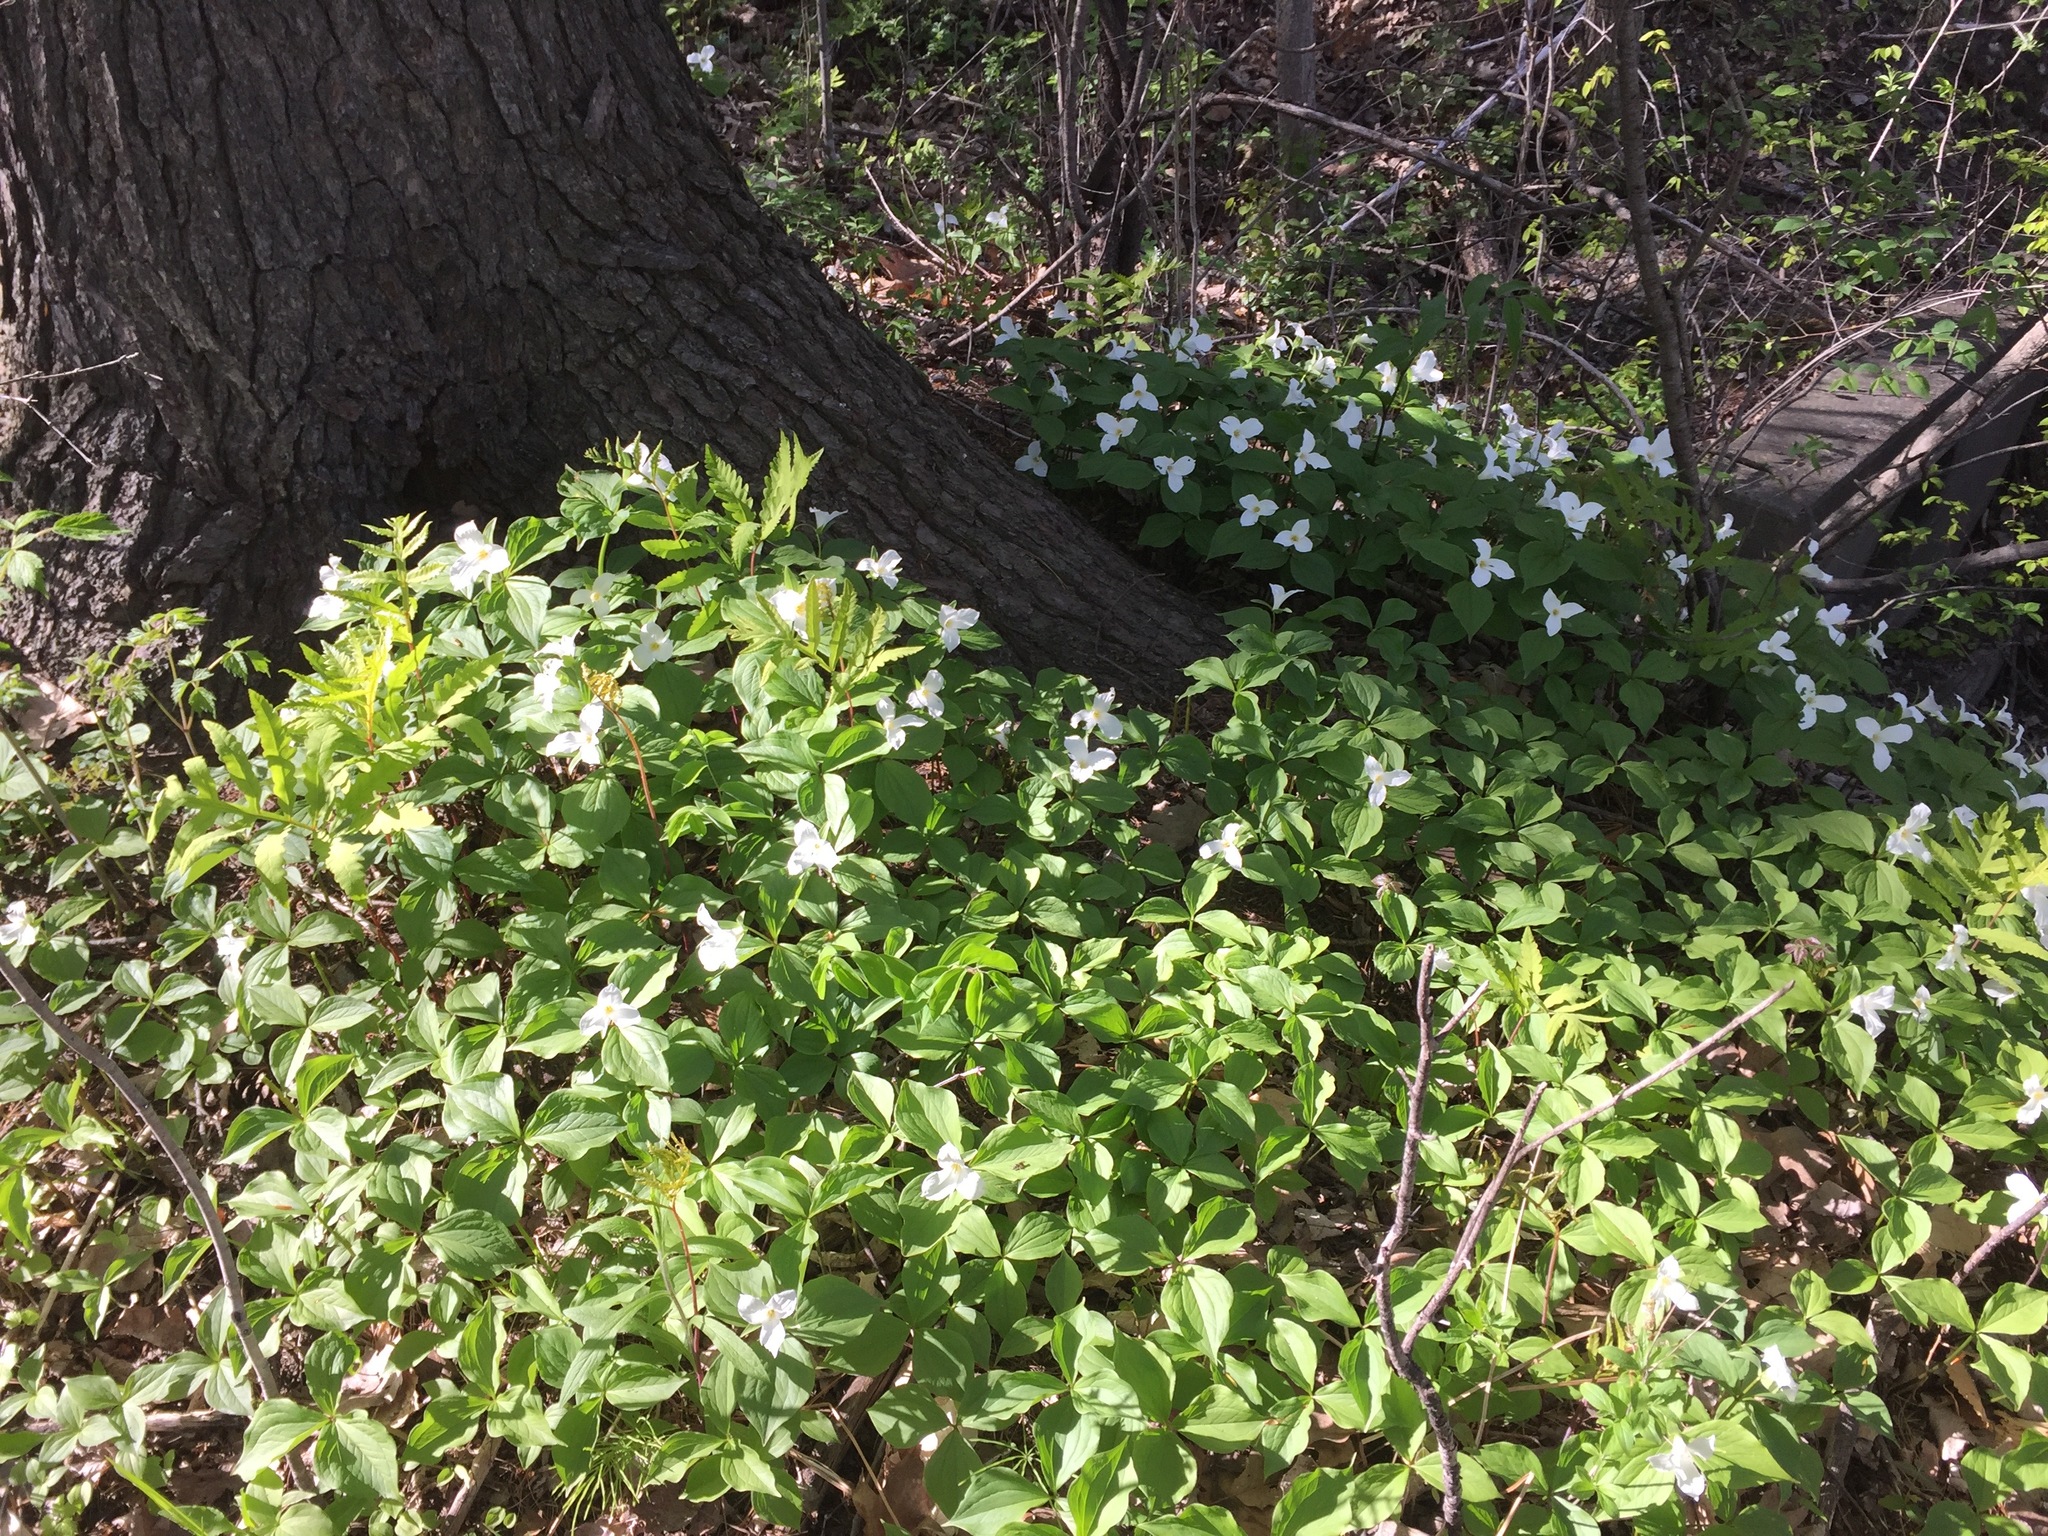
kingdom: Plantae
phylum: Tracheophyta
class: Liliopsida
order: Liliales
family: Melanthiaceae
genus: Trillium
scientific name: Trillium grandiflorum
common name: Great white trillium
